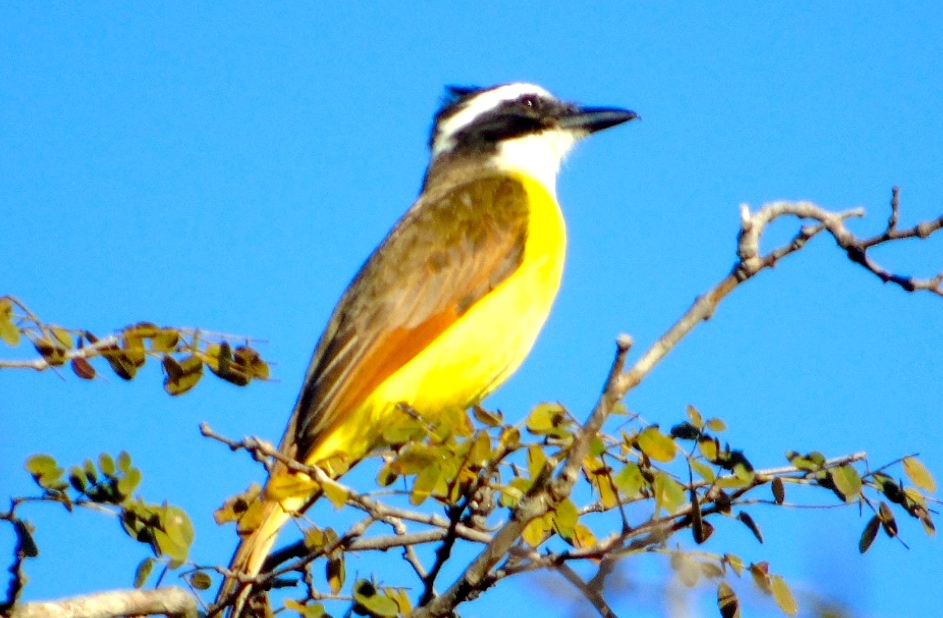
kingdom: Animalia
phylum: Chordata
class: Aves
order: Passeriformes
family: Tyrannidae
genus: Pitangus
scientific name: Pitangus sulphuratus
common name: Great kiskadee
